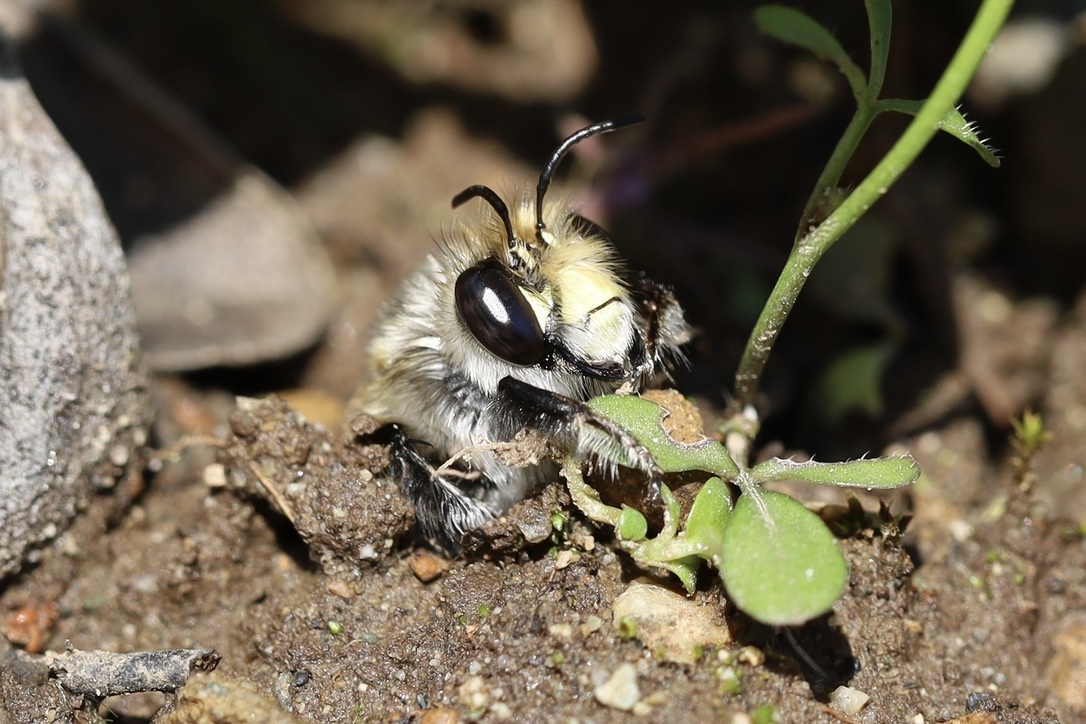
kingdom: Animalia
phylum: Arthropoda
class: Insecta
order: Hymenoptera
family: Apidae
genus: Anthophora
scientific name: Anthophora pacifica
